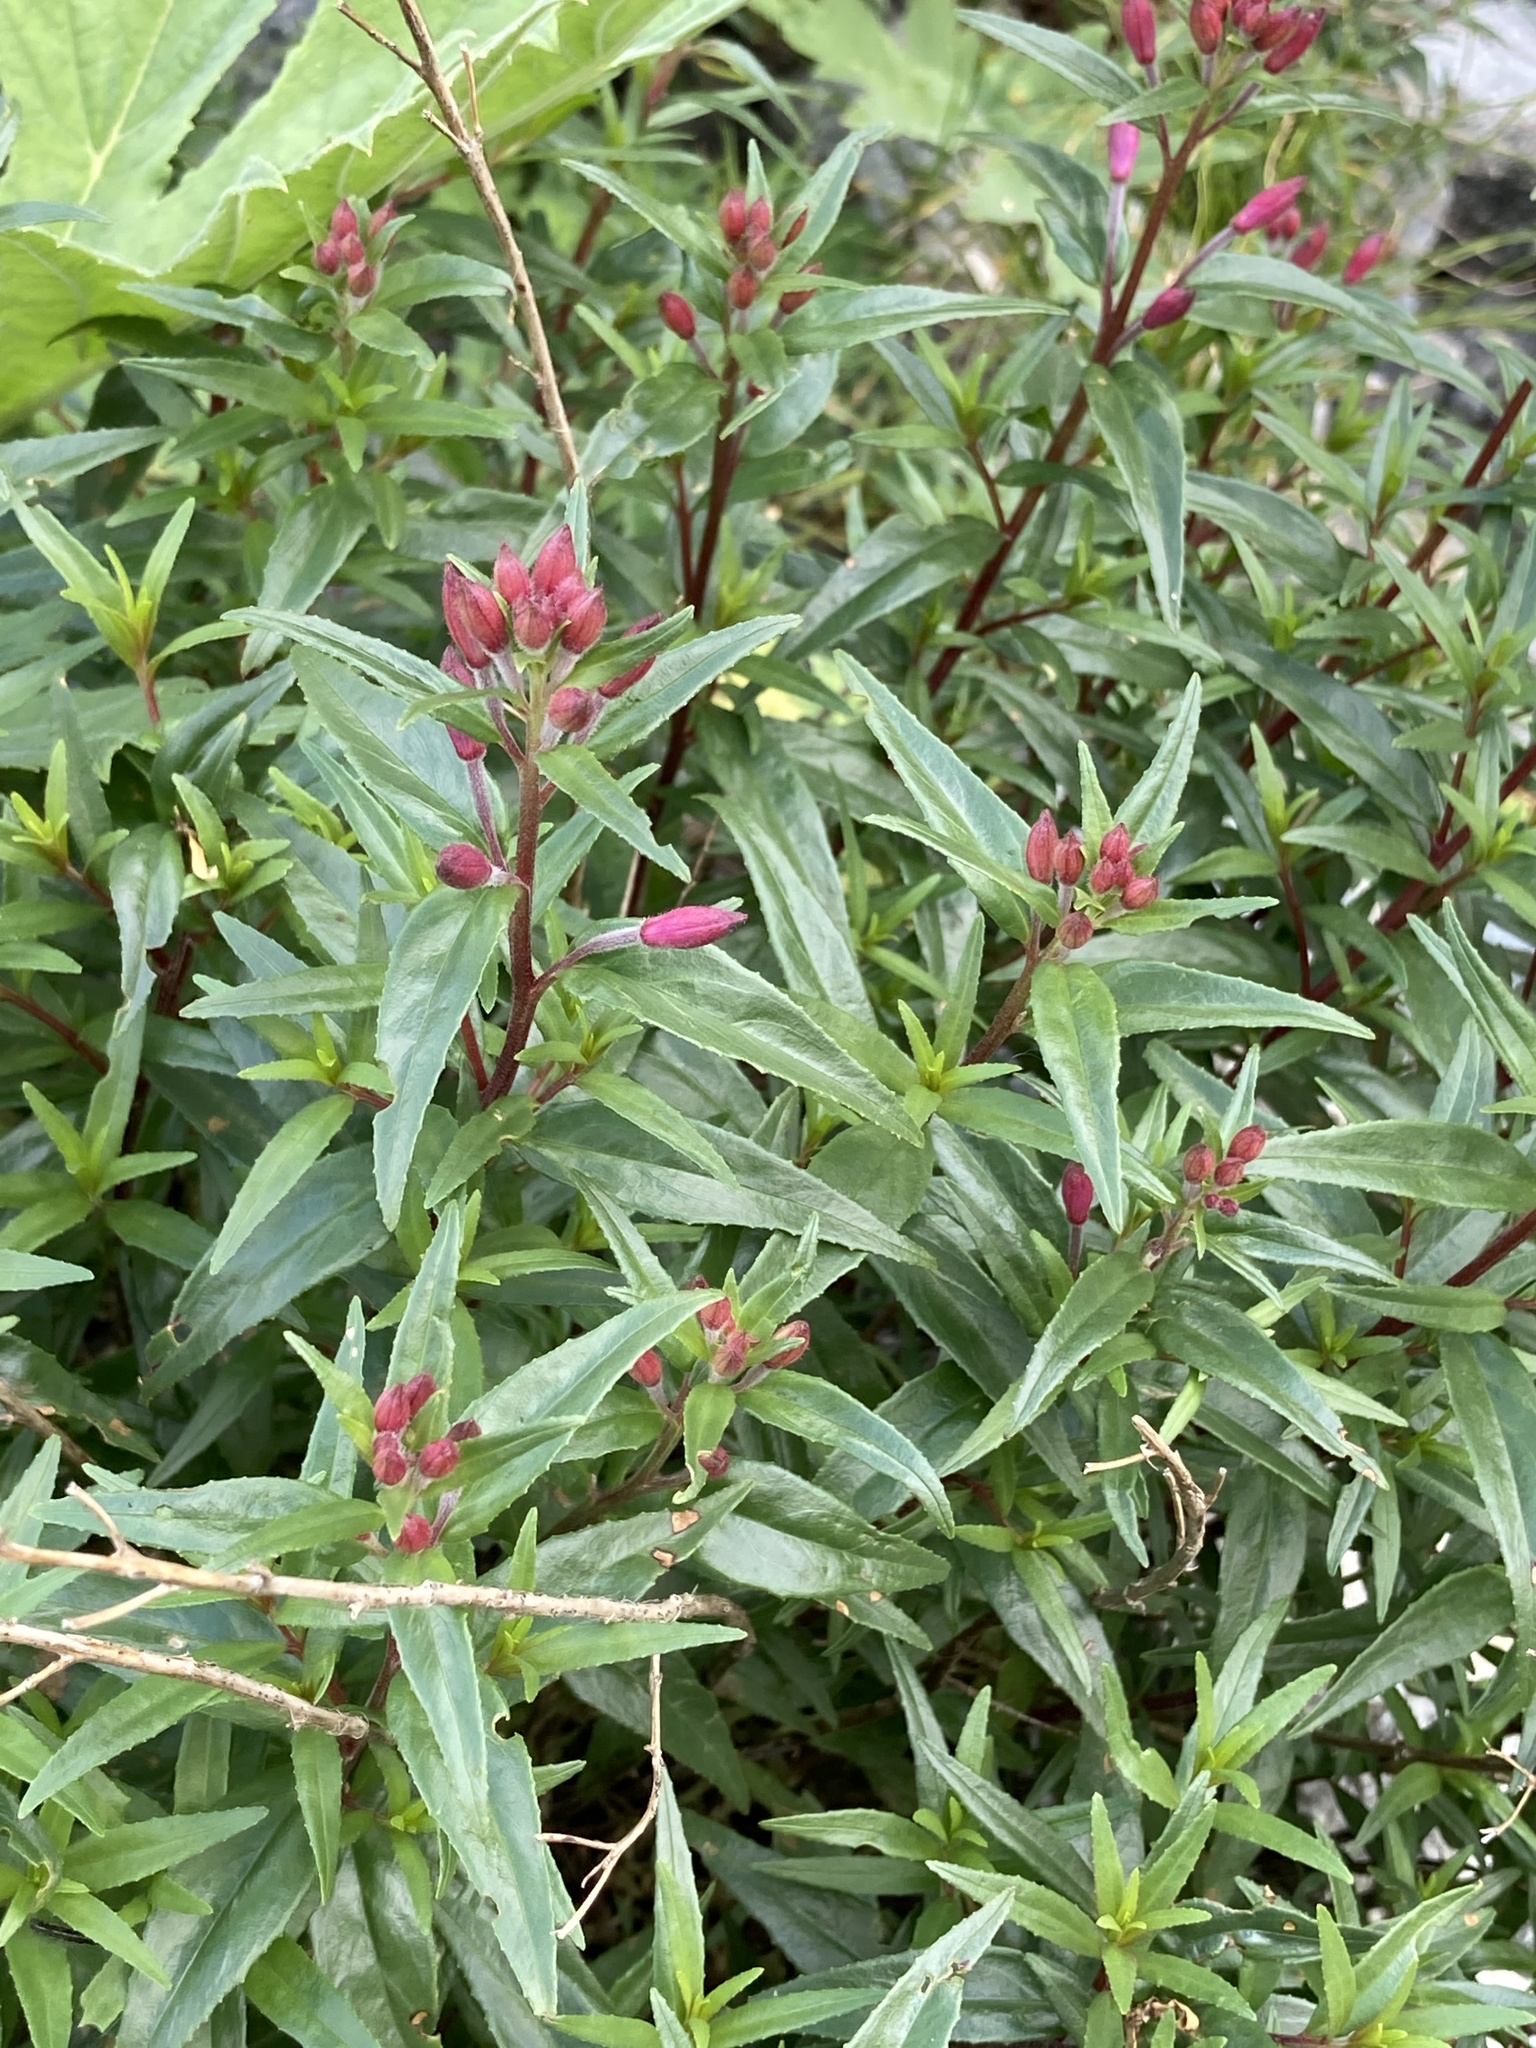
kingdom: Plantae
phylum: Tracheophyta
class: Magnoliopsida
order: Myrtales
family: Onagraceae
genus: Chamaenerion
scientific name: Chamaenerion colchicum
